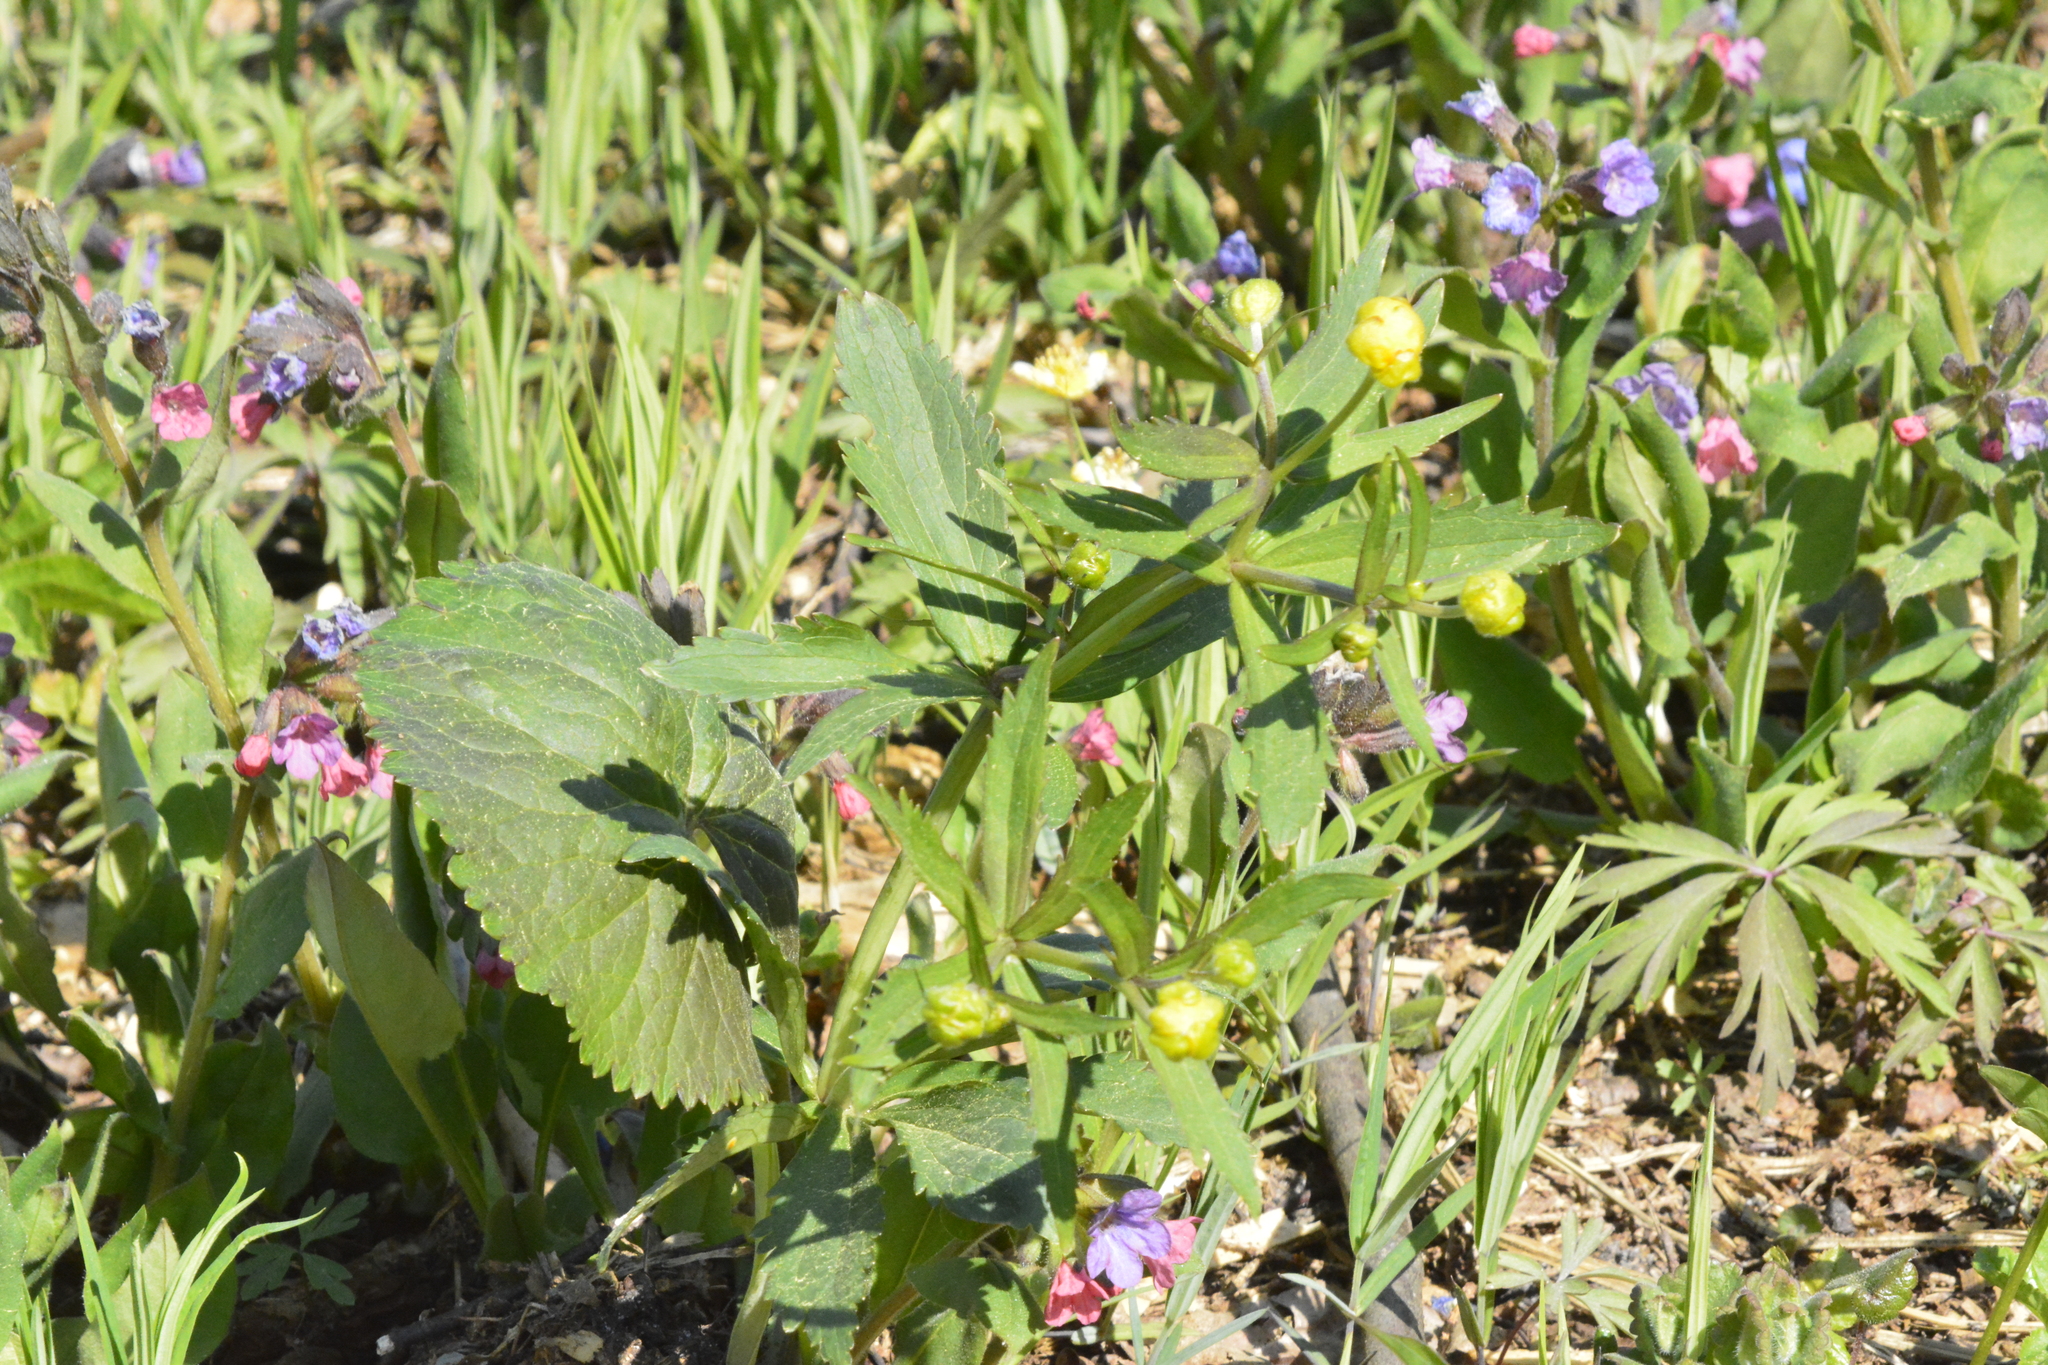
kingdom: Plantae
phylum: Tracheophyta
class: Magnoliopsida
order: Ranunculales
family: Ranunculaceae
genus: Ranunculus
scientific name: Ranunculus cassubicus
